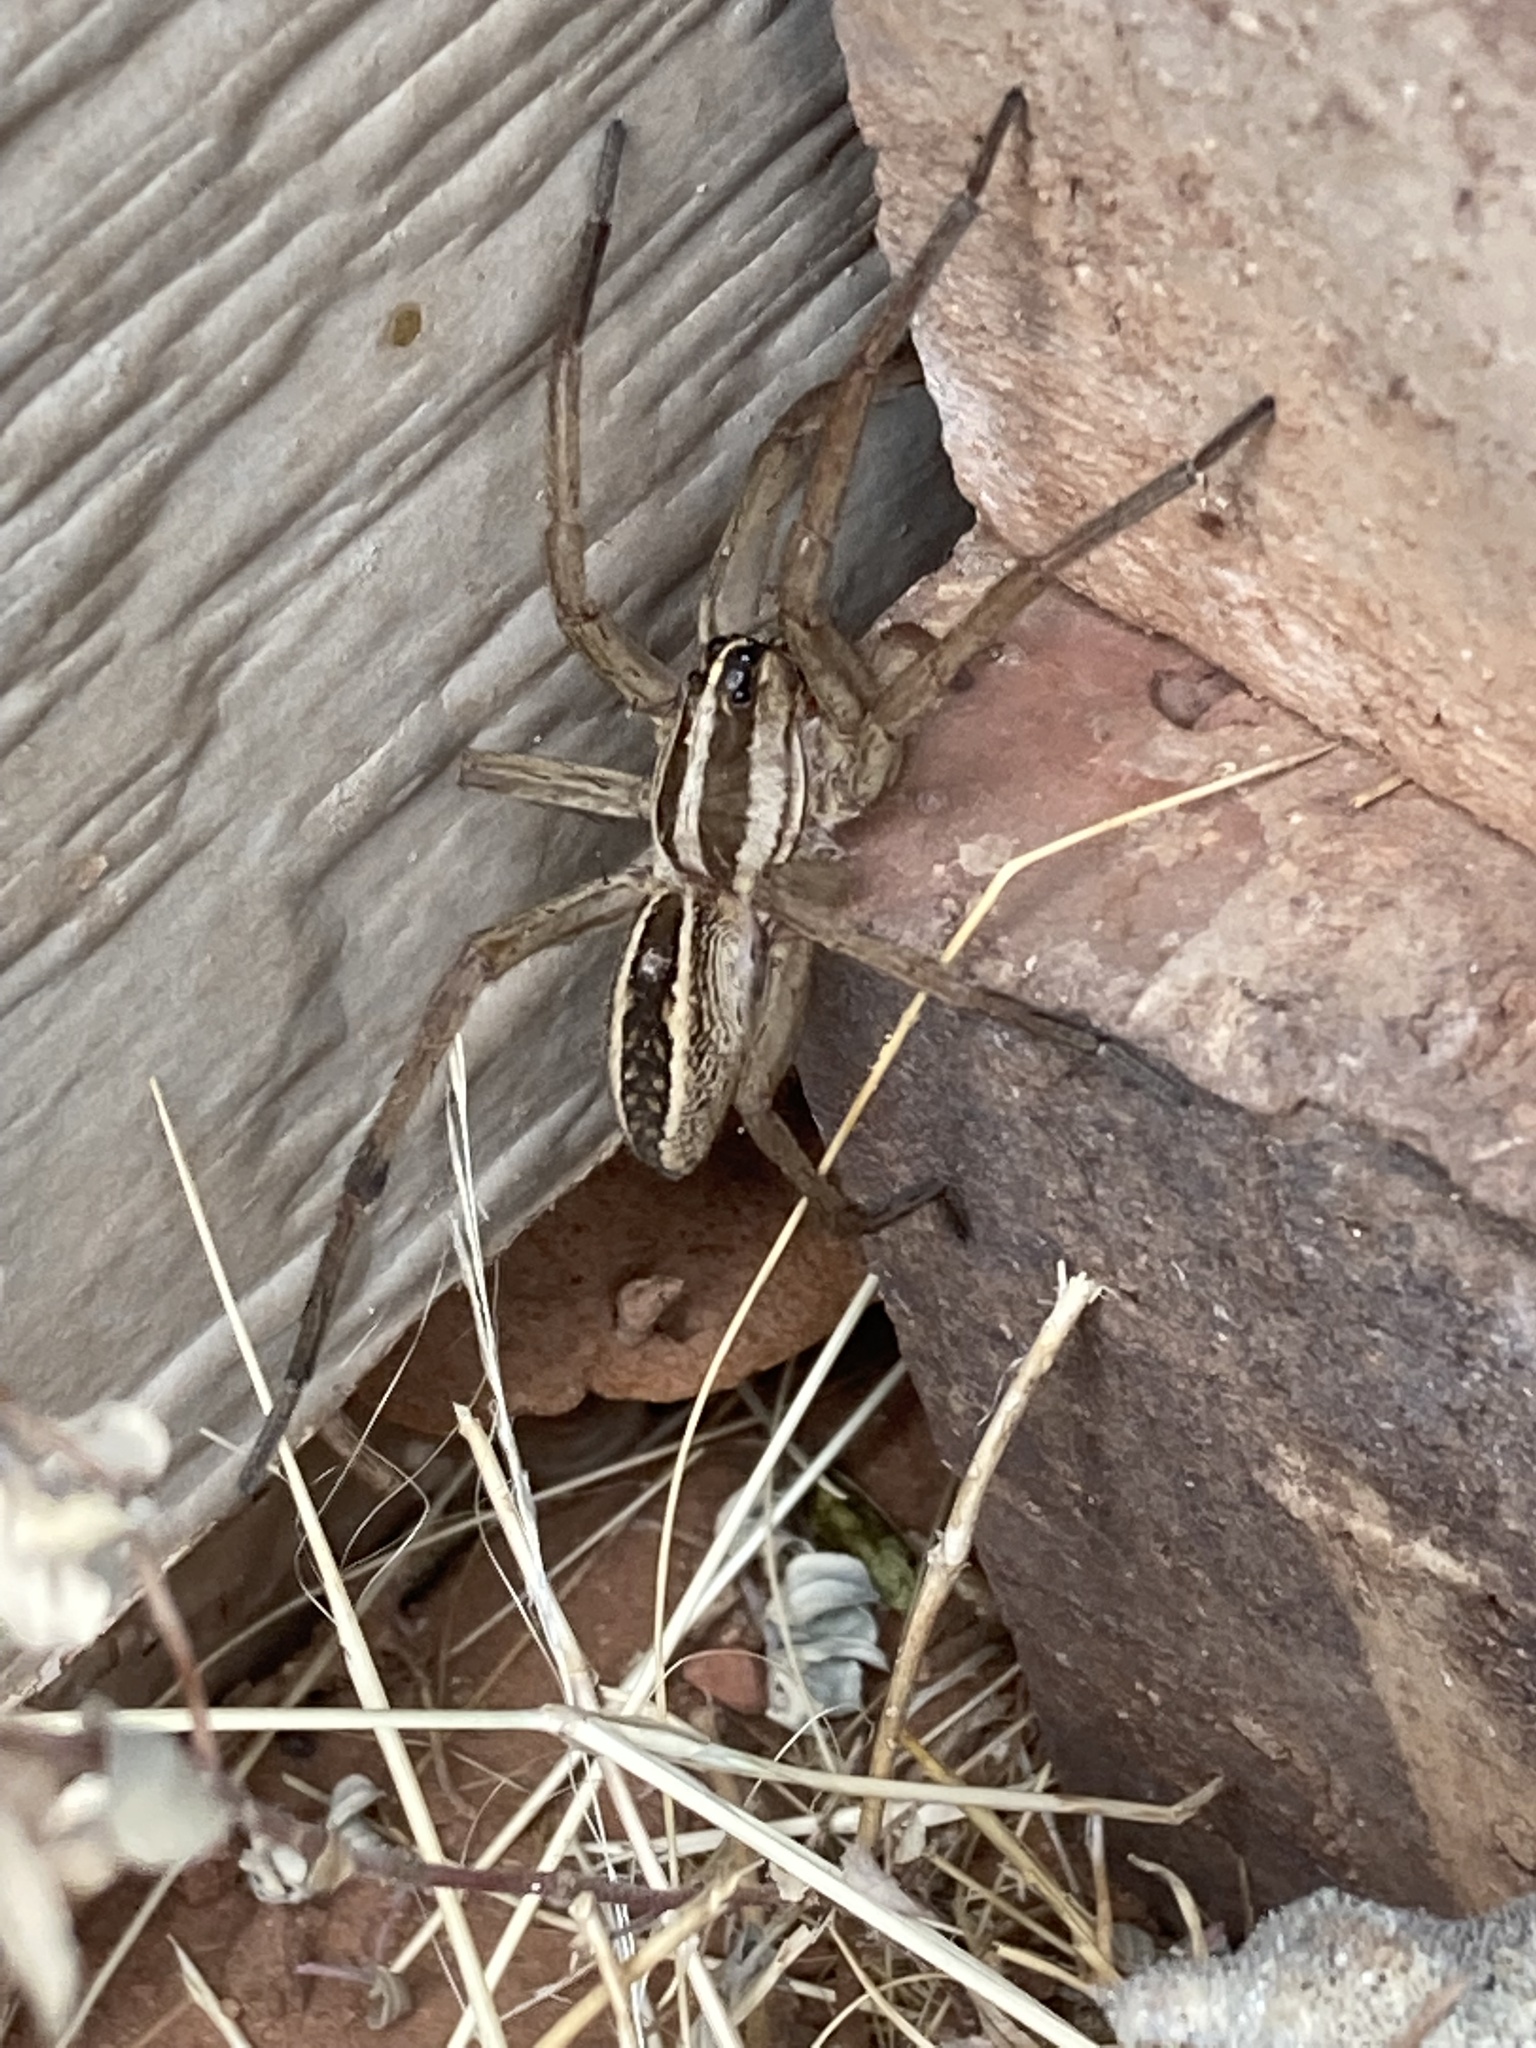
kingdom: Animalia
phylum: Arthropoda
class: Arachnida
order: Araneae
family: Lycosidae
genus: Rabidosa
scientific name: Rabidosa rabida
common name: Rabid wolf spider
